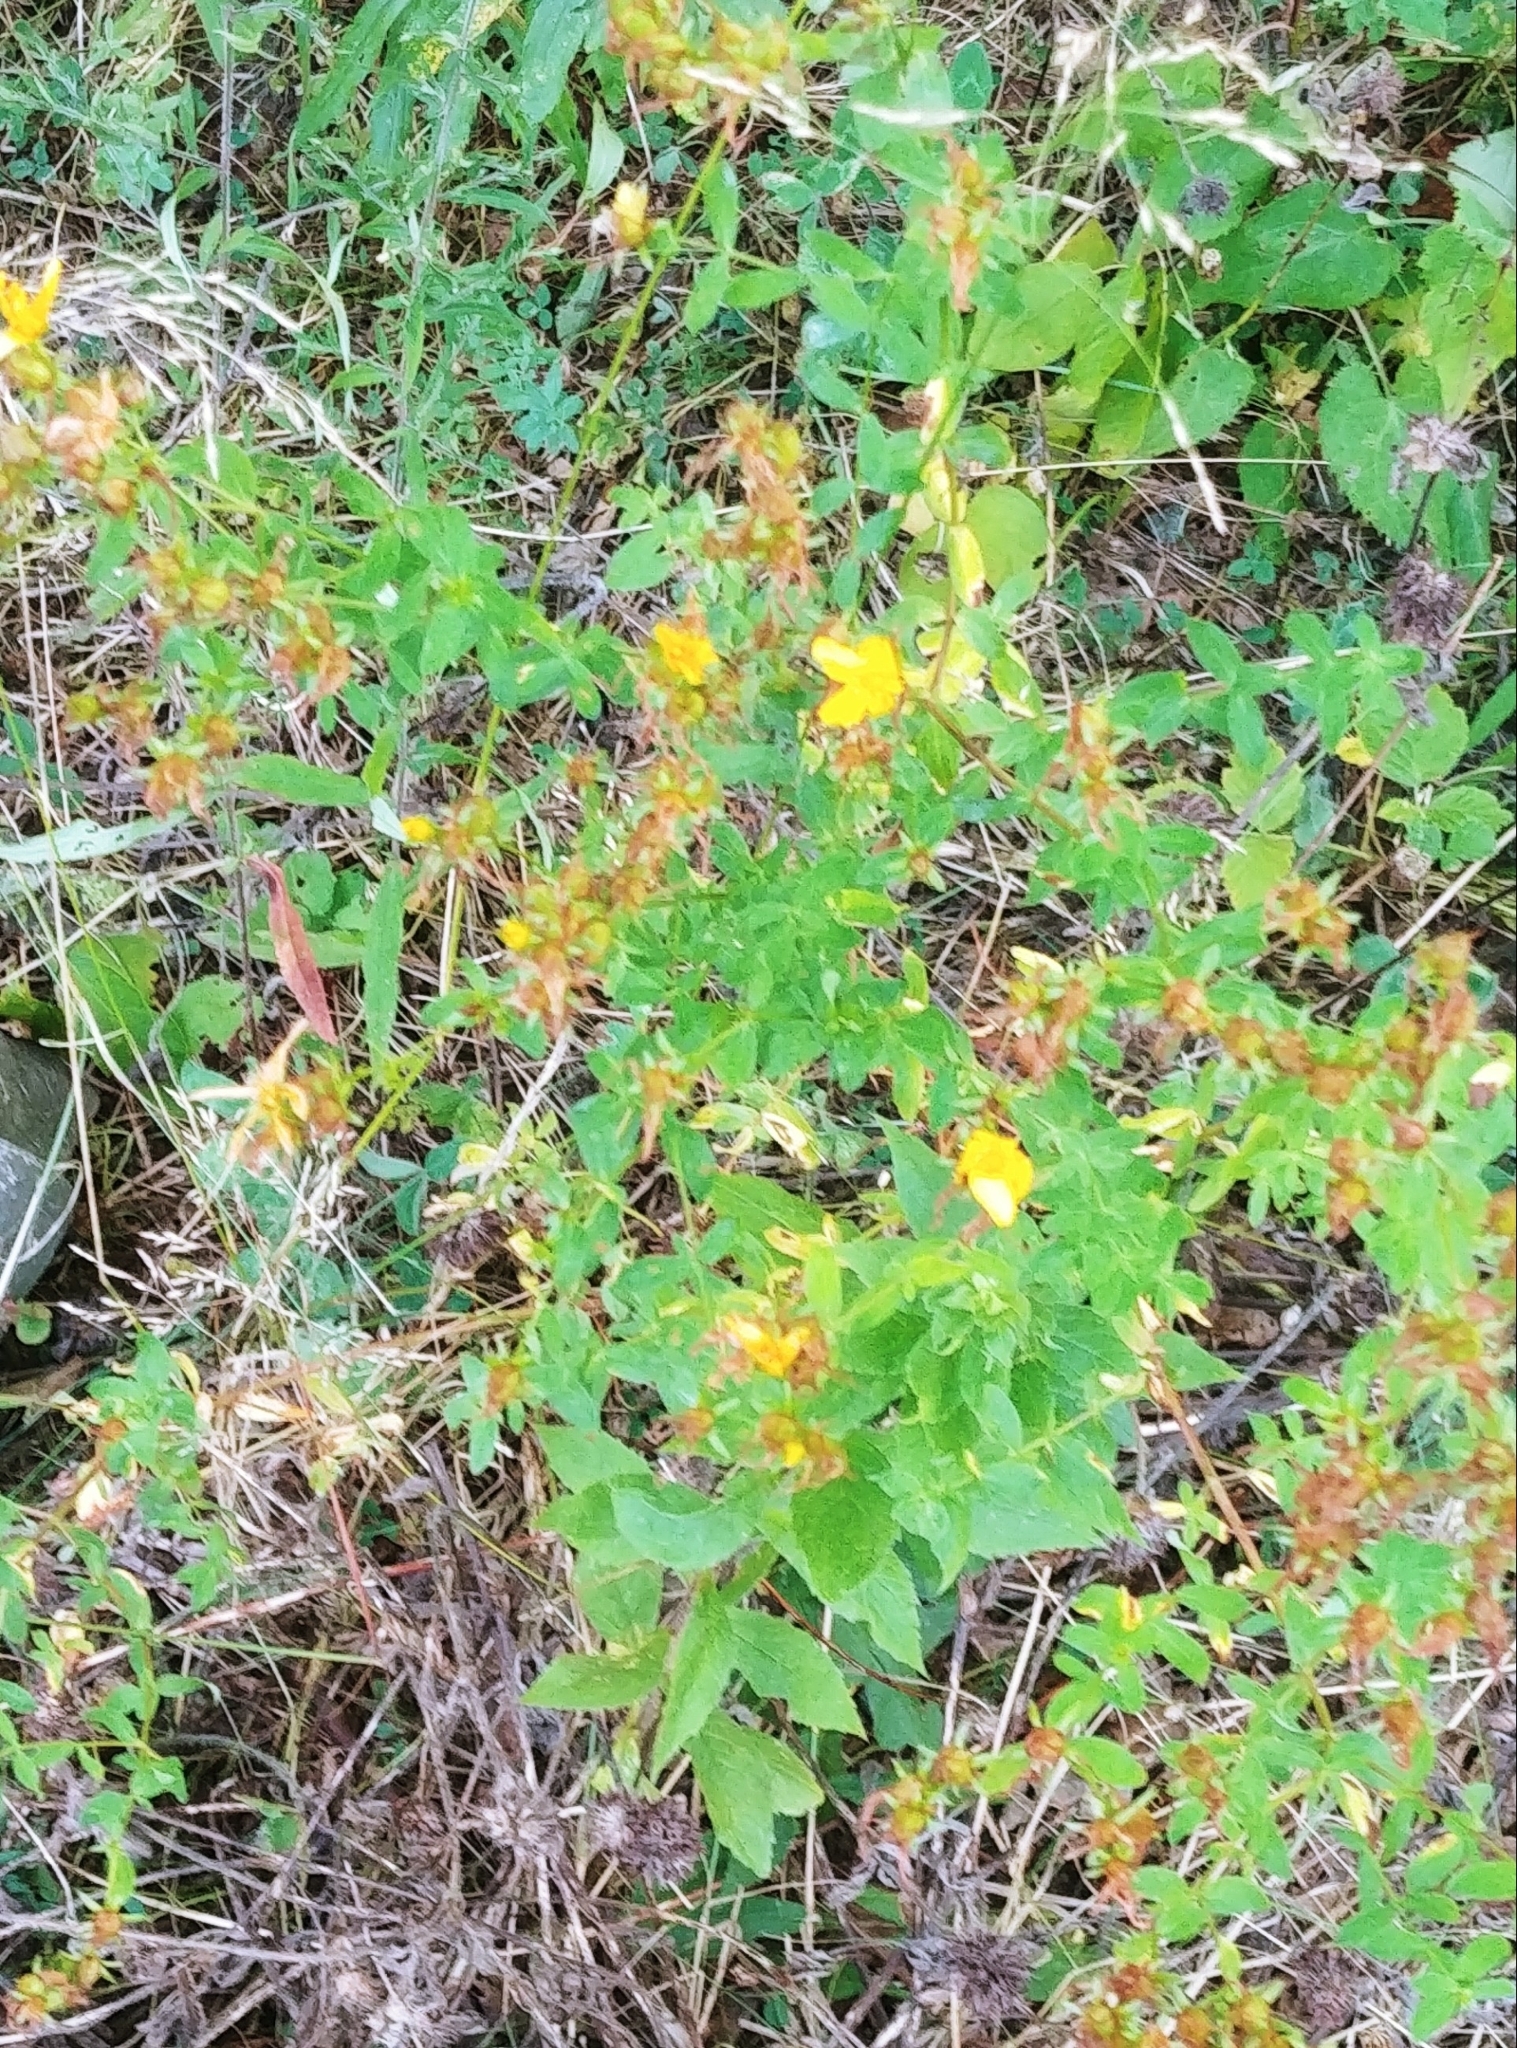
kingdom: Plantae
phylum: Tracheophyta
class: Magnoliopsida
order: Malpighiales
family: Hypericaceae
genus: Hypericum
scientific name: Hypericum perforatum
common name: Common st. johnswort
